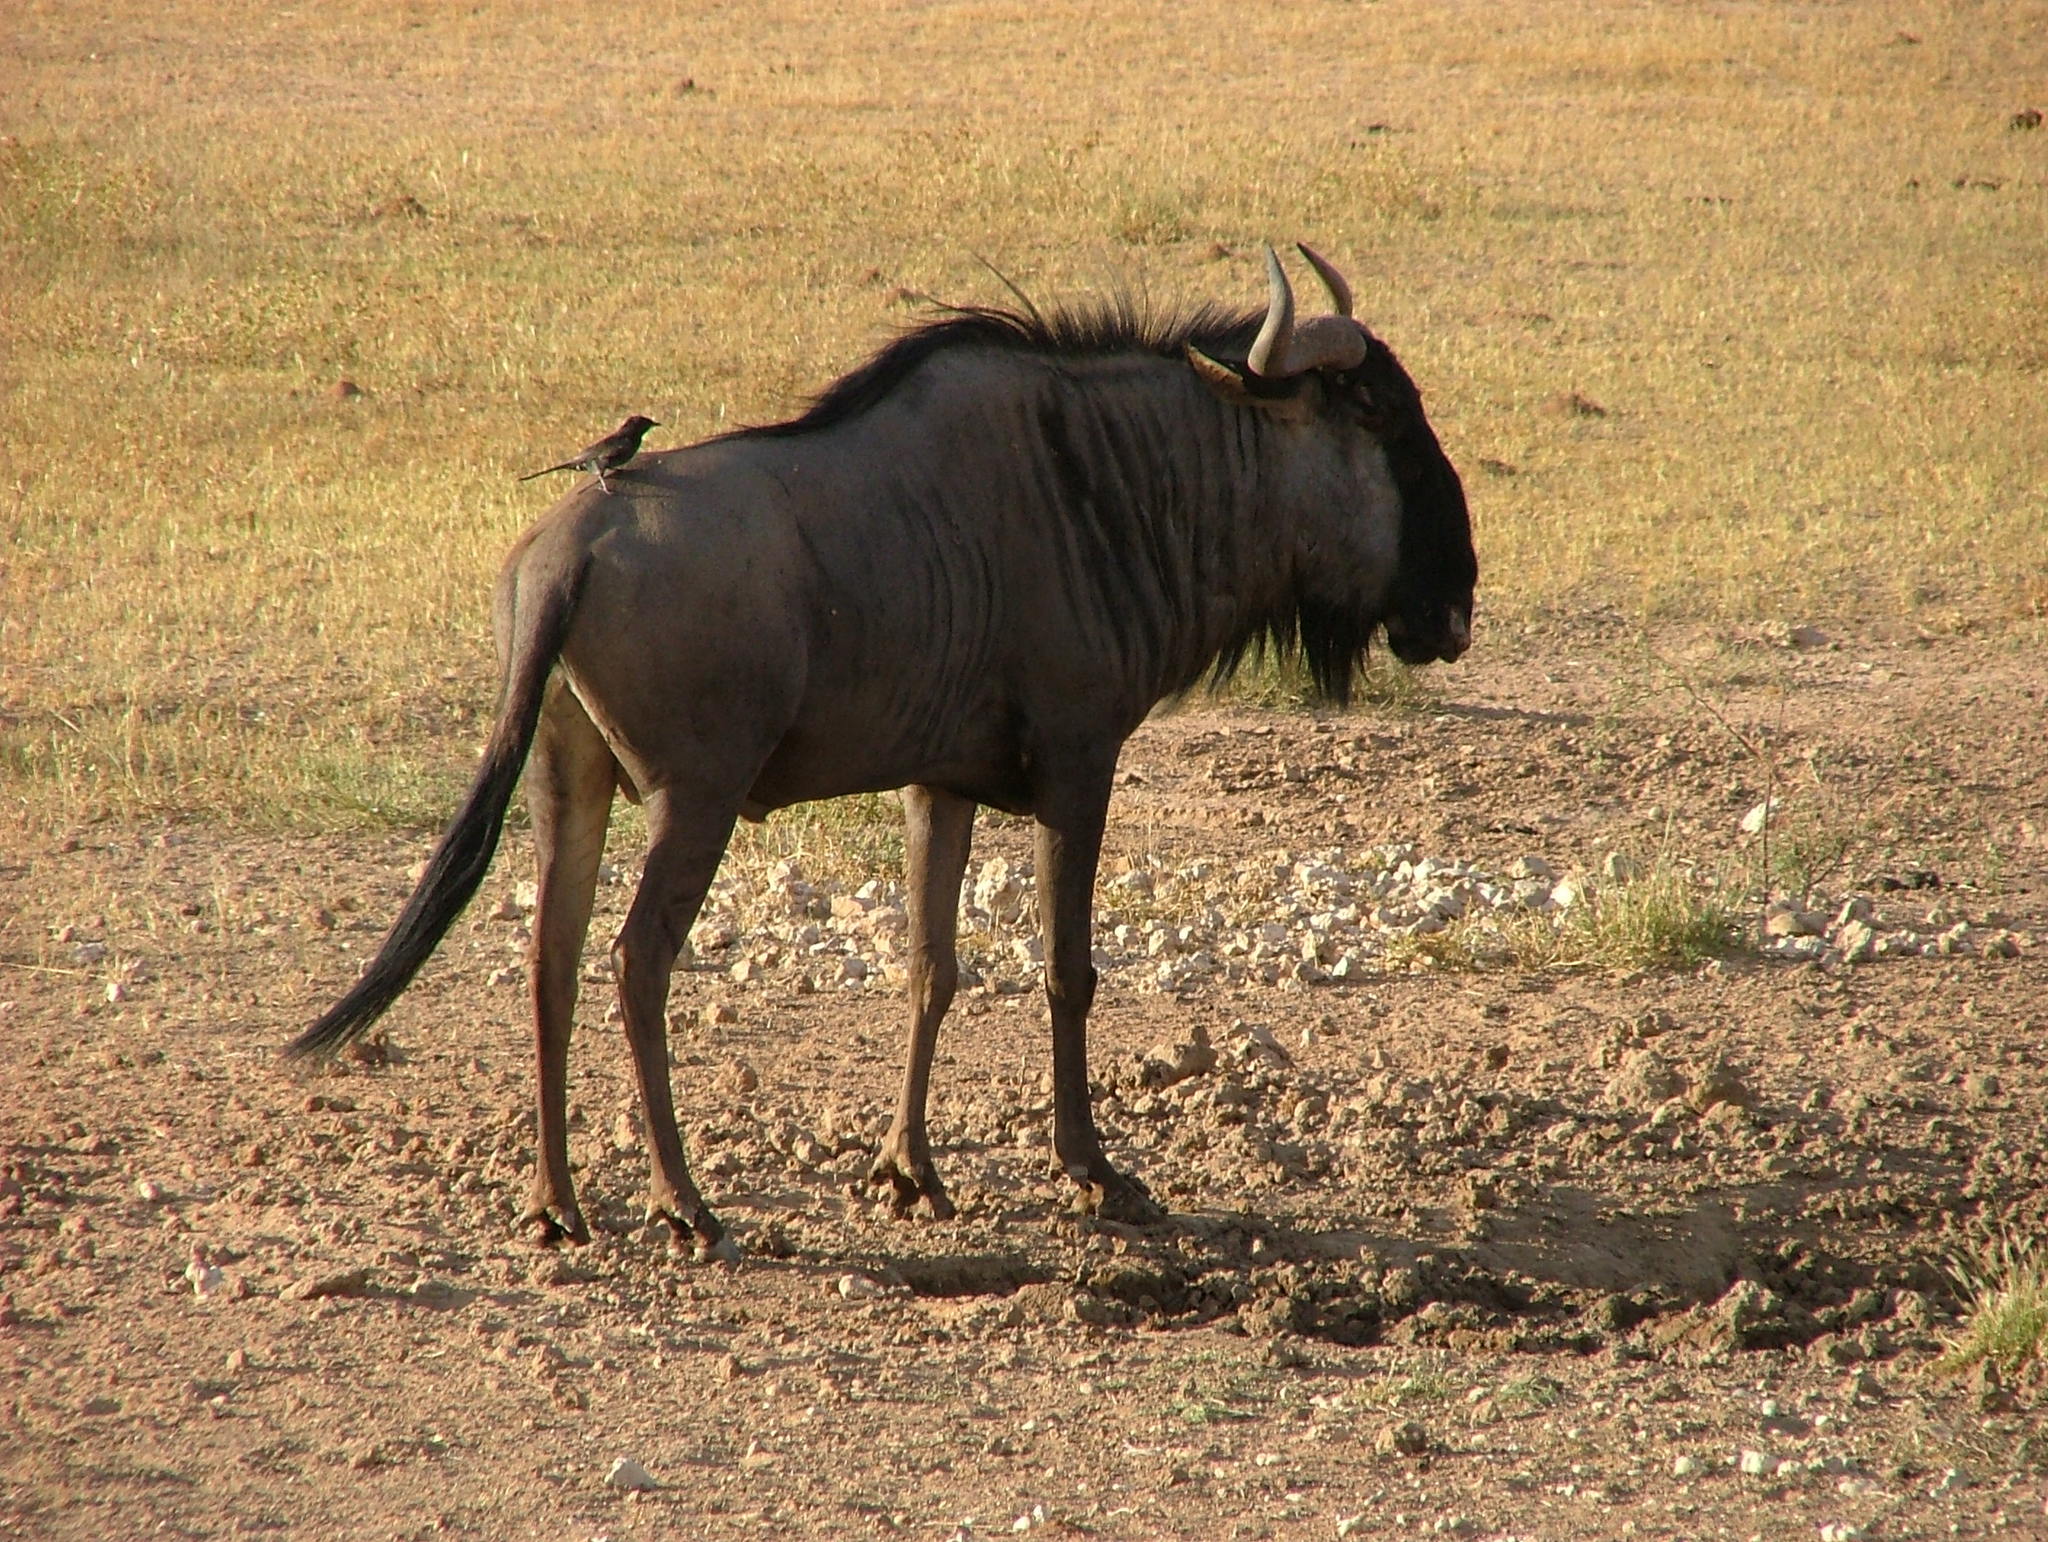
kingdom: Animalia
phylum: Chordata
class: Aves
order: Passeriformes
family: Dicruridae
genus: Dicrurus
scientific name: Dicrurus adsimilis
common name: Fork-tailed drongo
